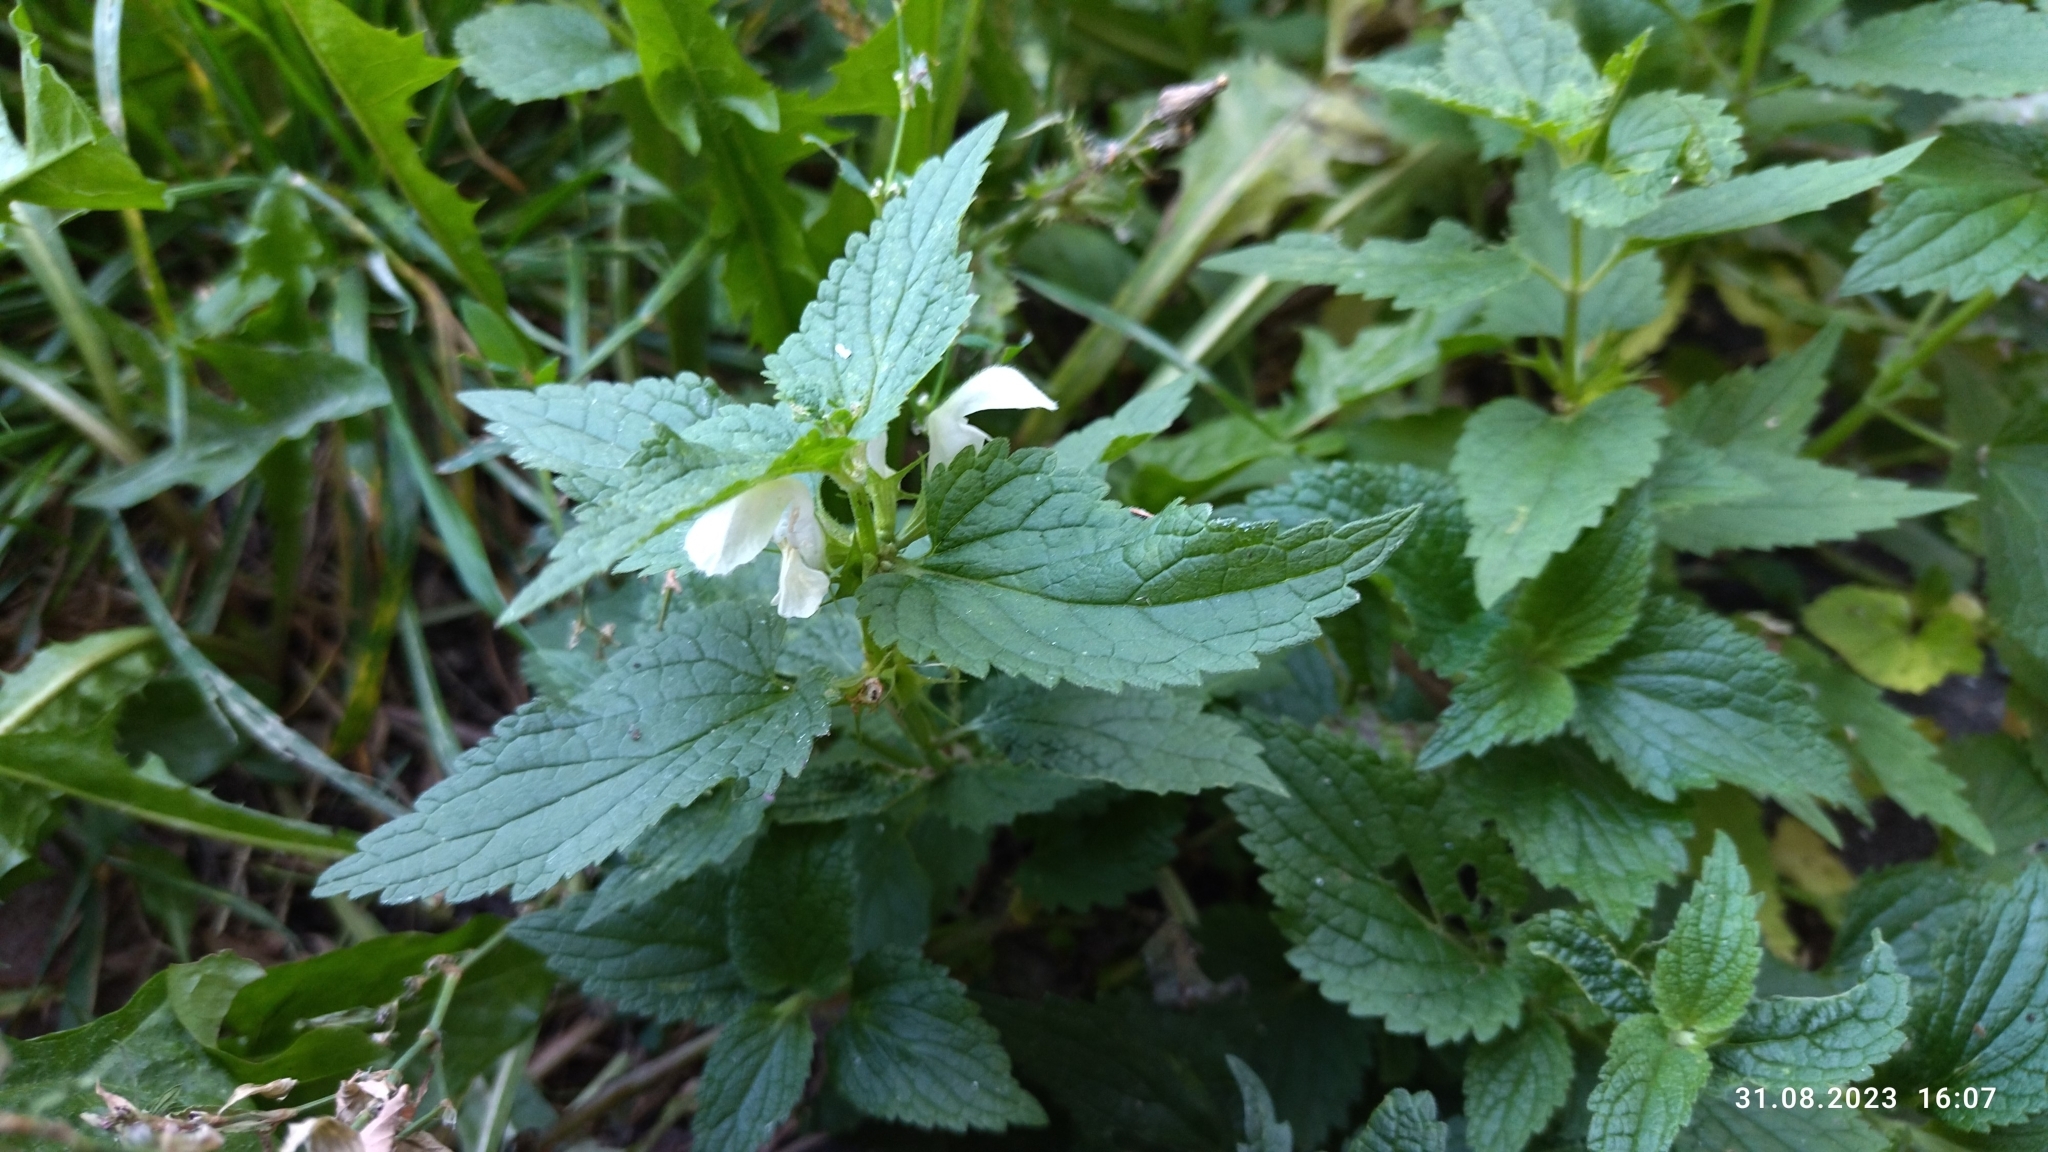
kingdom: Plantae
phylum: Tracheophyta
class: Magnoliopsida
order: Lamiales
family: Lamiaceae
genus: Lamium
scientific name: Lamium album
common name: White dead-nettle
